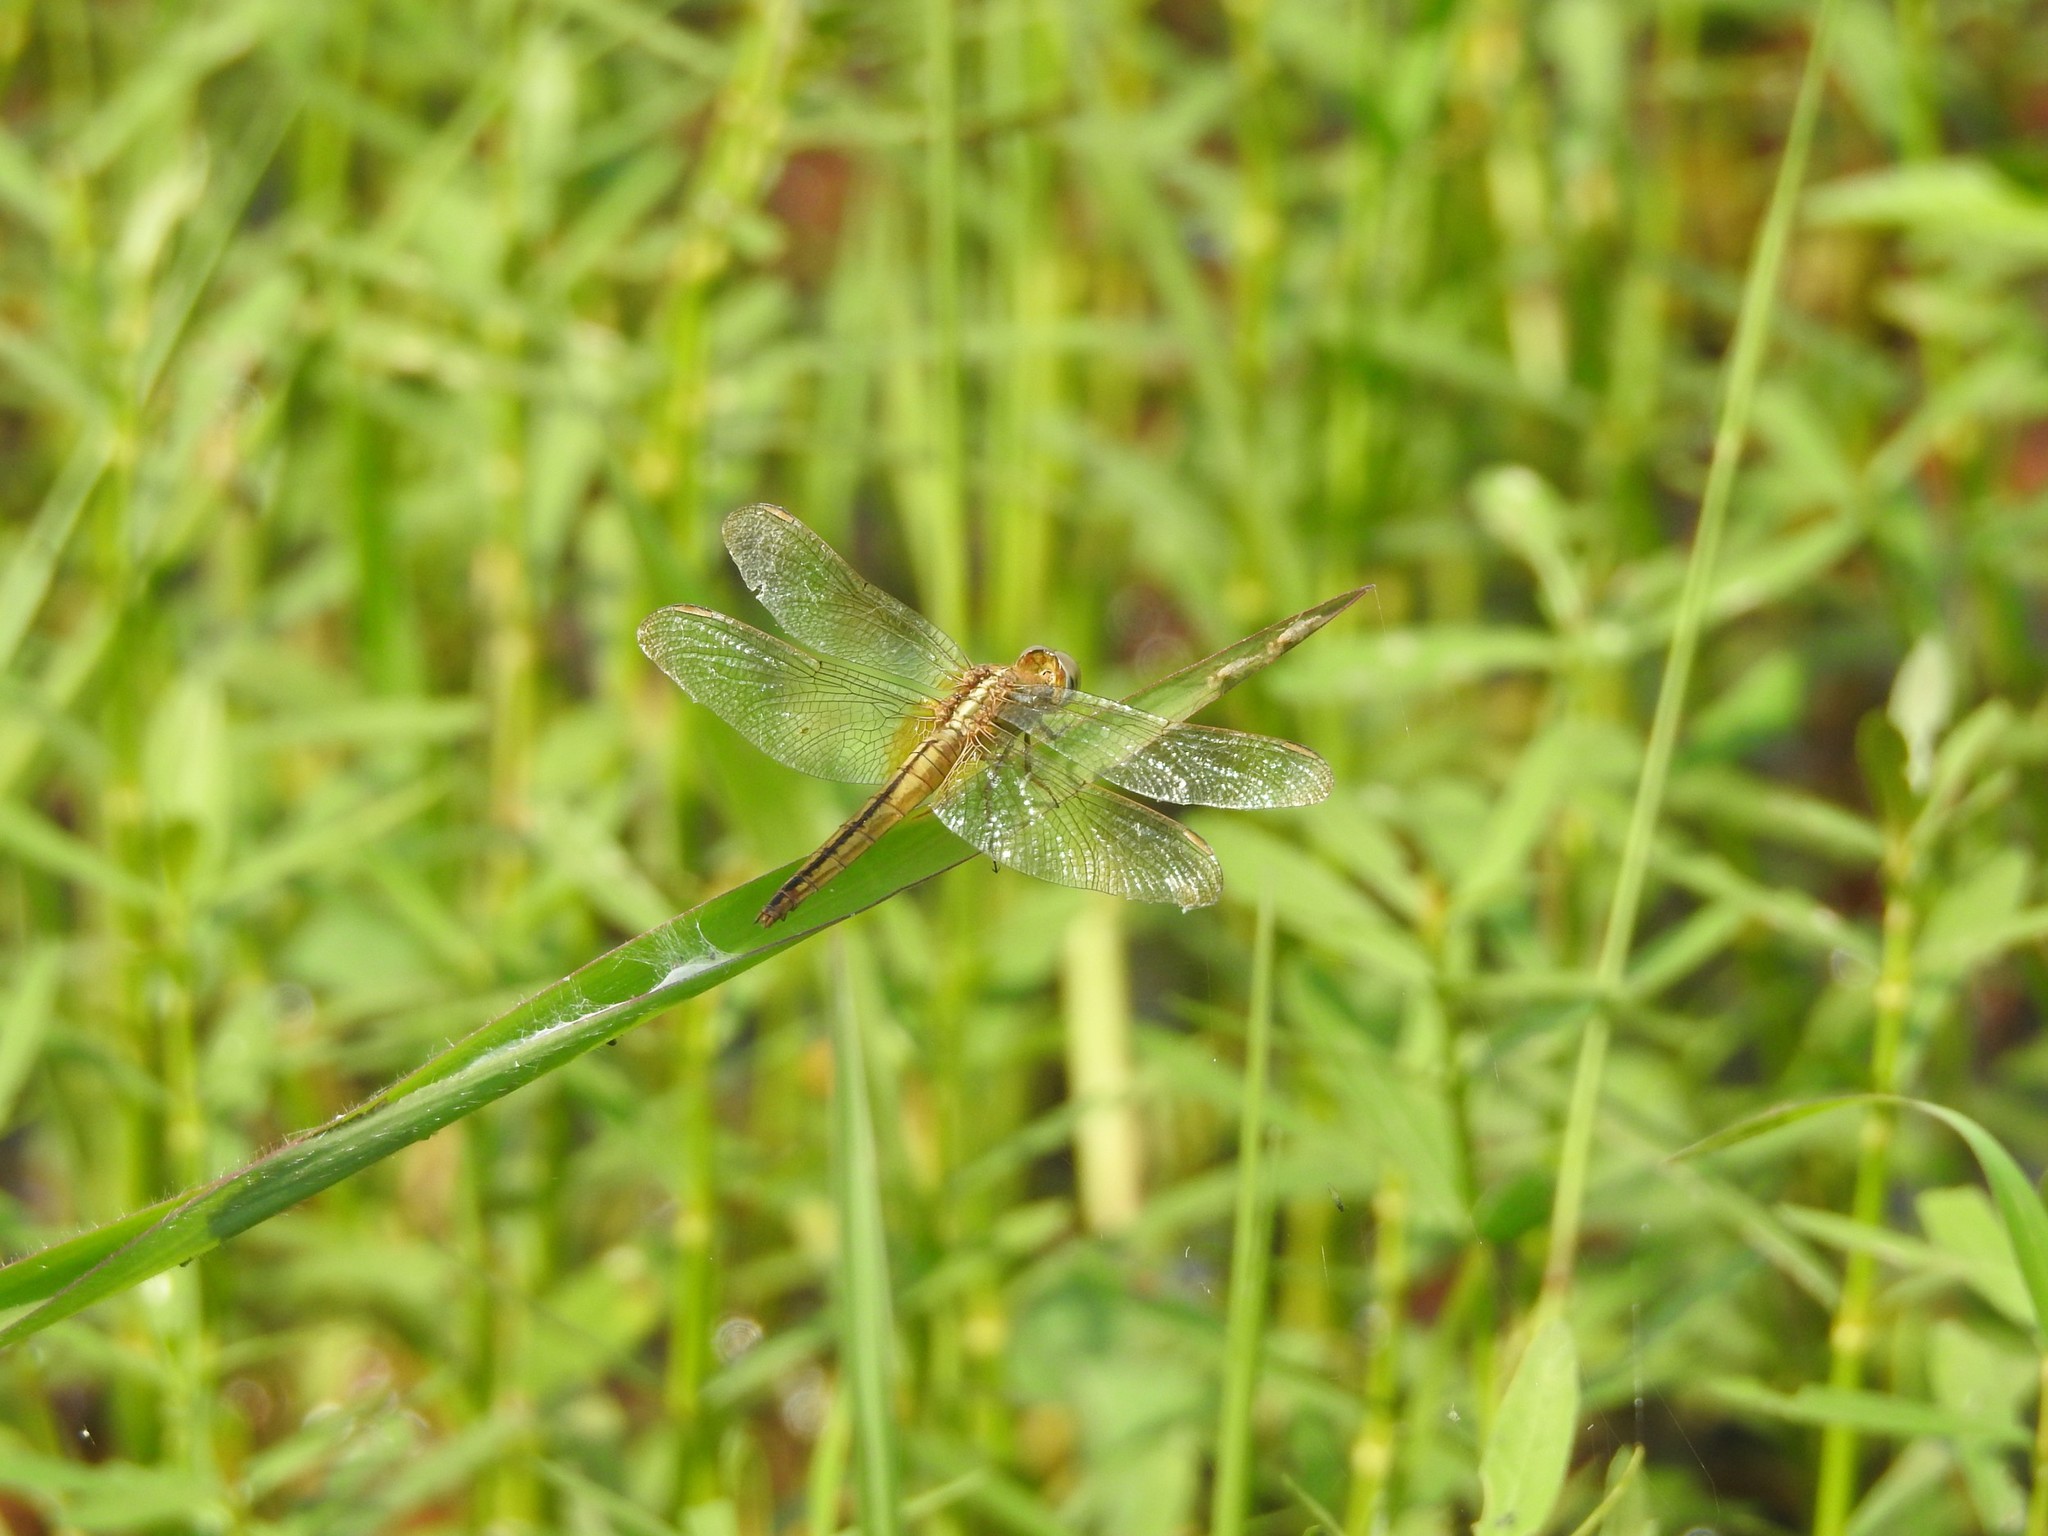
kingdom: Animalia
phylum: Arthropoda
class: Insecta
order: Odonata
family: Libellulidae
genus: Crocothemis
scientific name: Crocothemis servilia
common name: Scarlet skimmer
